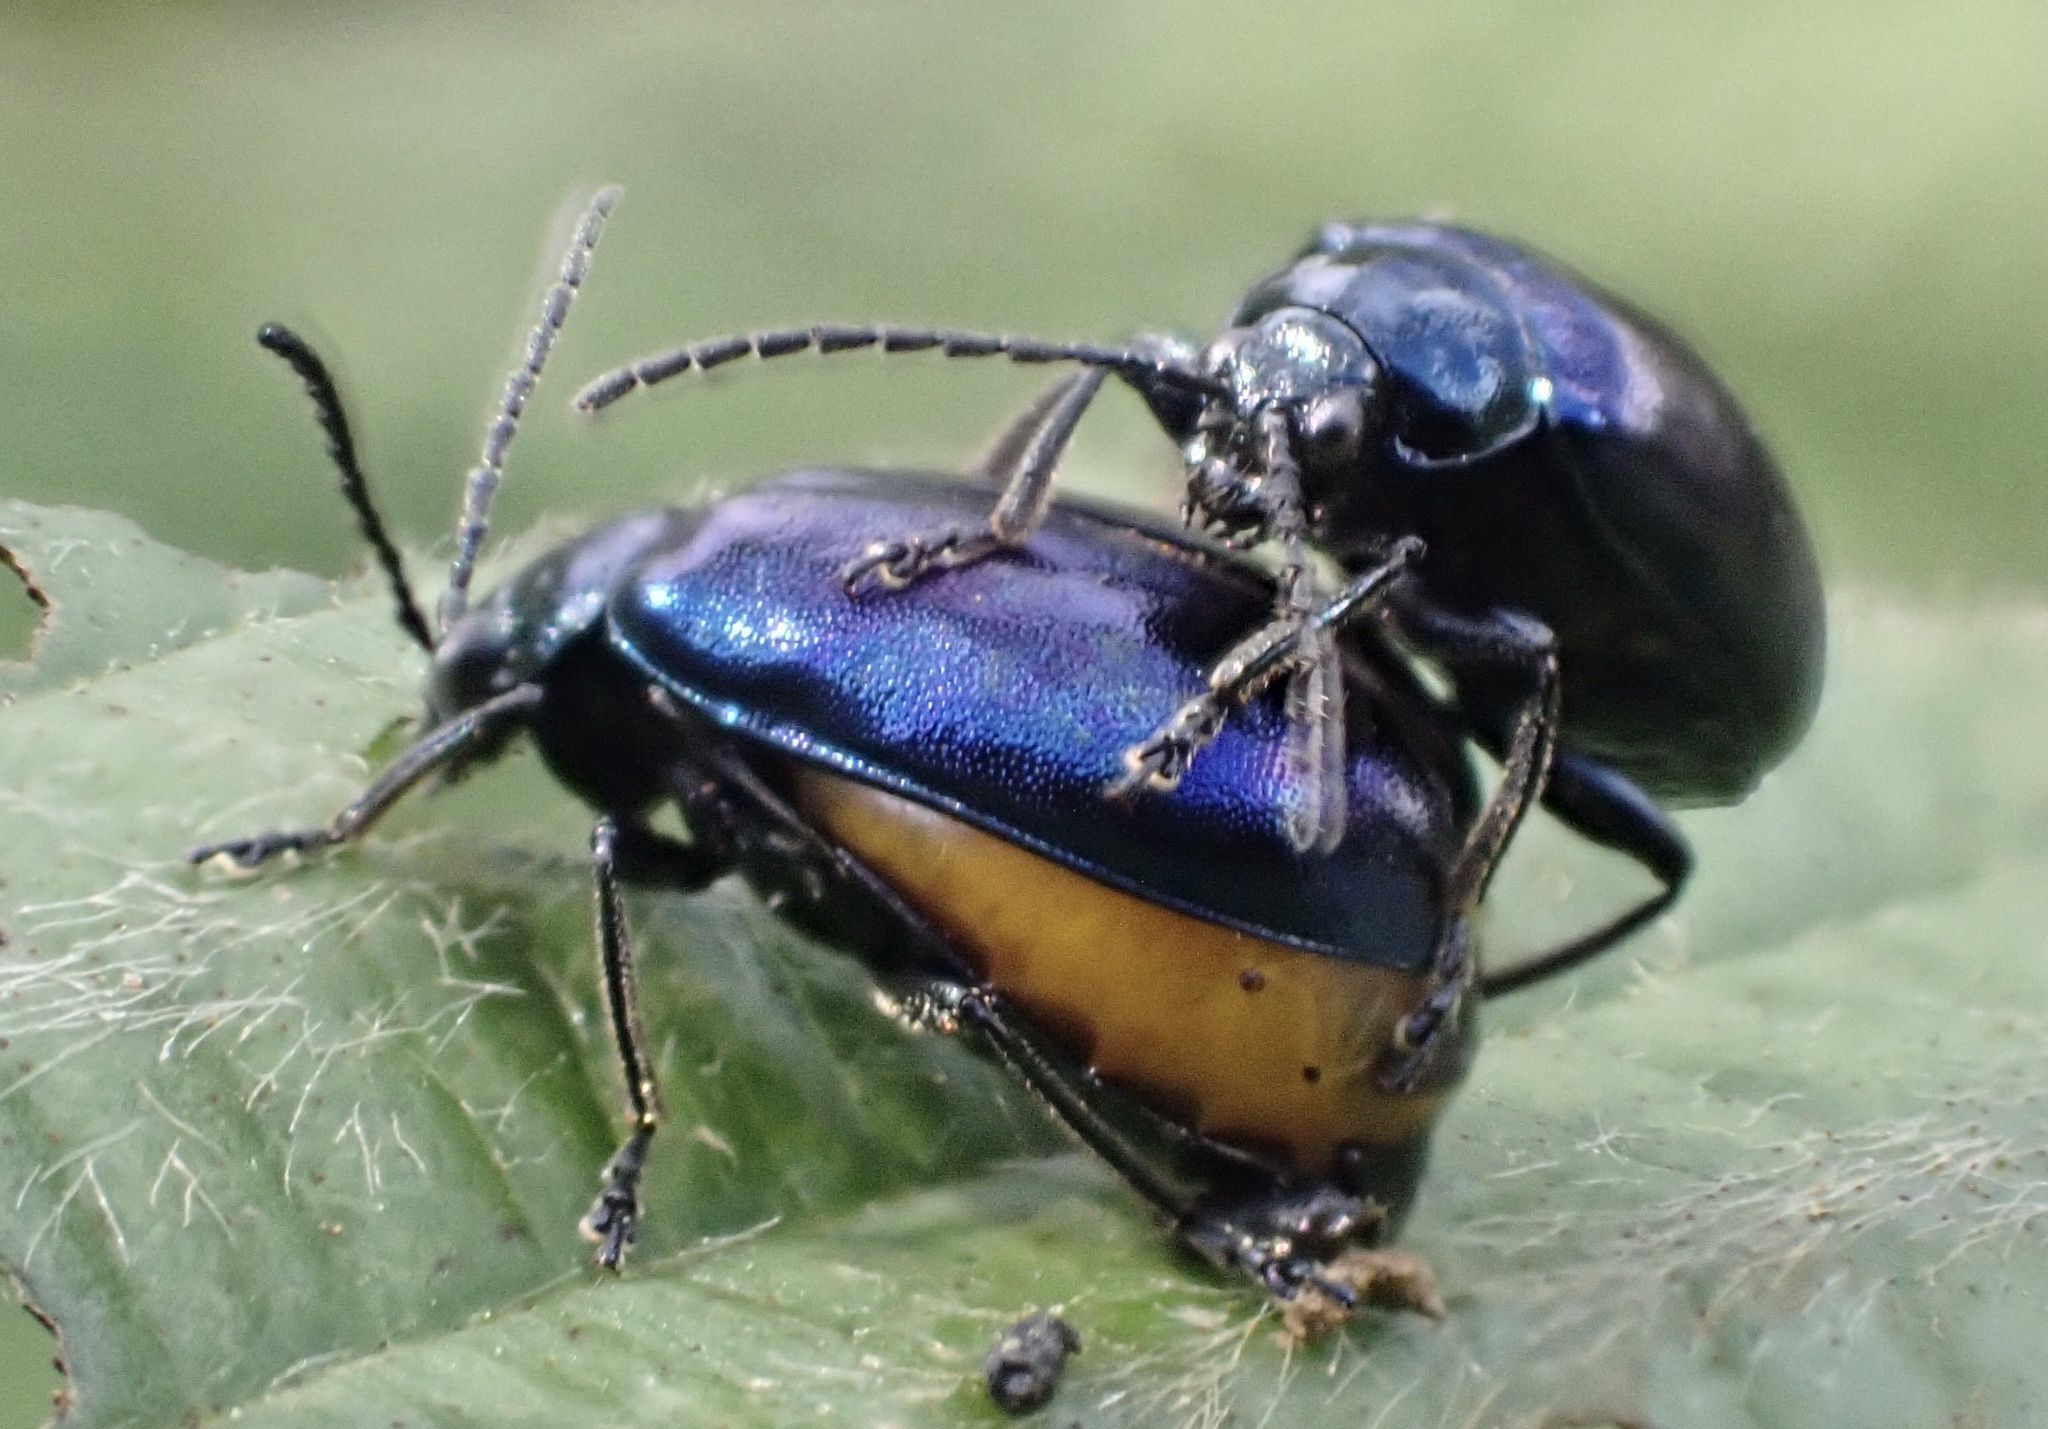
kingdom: Animalia
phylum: Arthropoda
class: Insecta
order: Coleoptera
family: Chrysomelidae
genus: Agelastica
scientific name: Agelastica alni
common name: Alder leaf beetle
